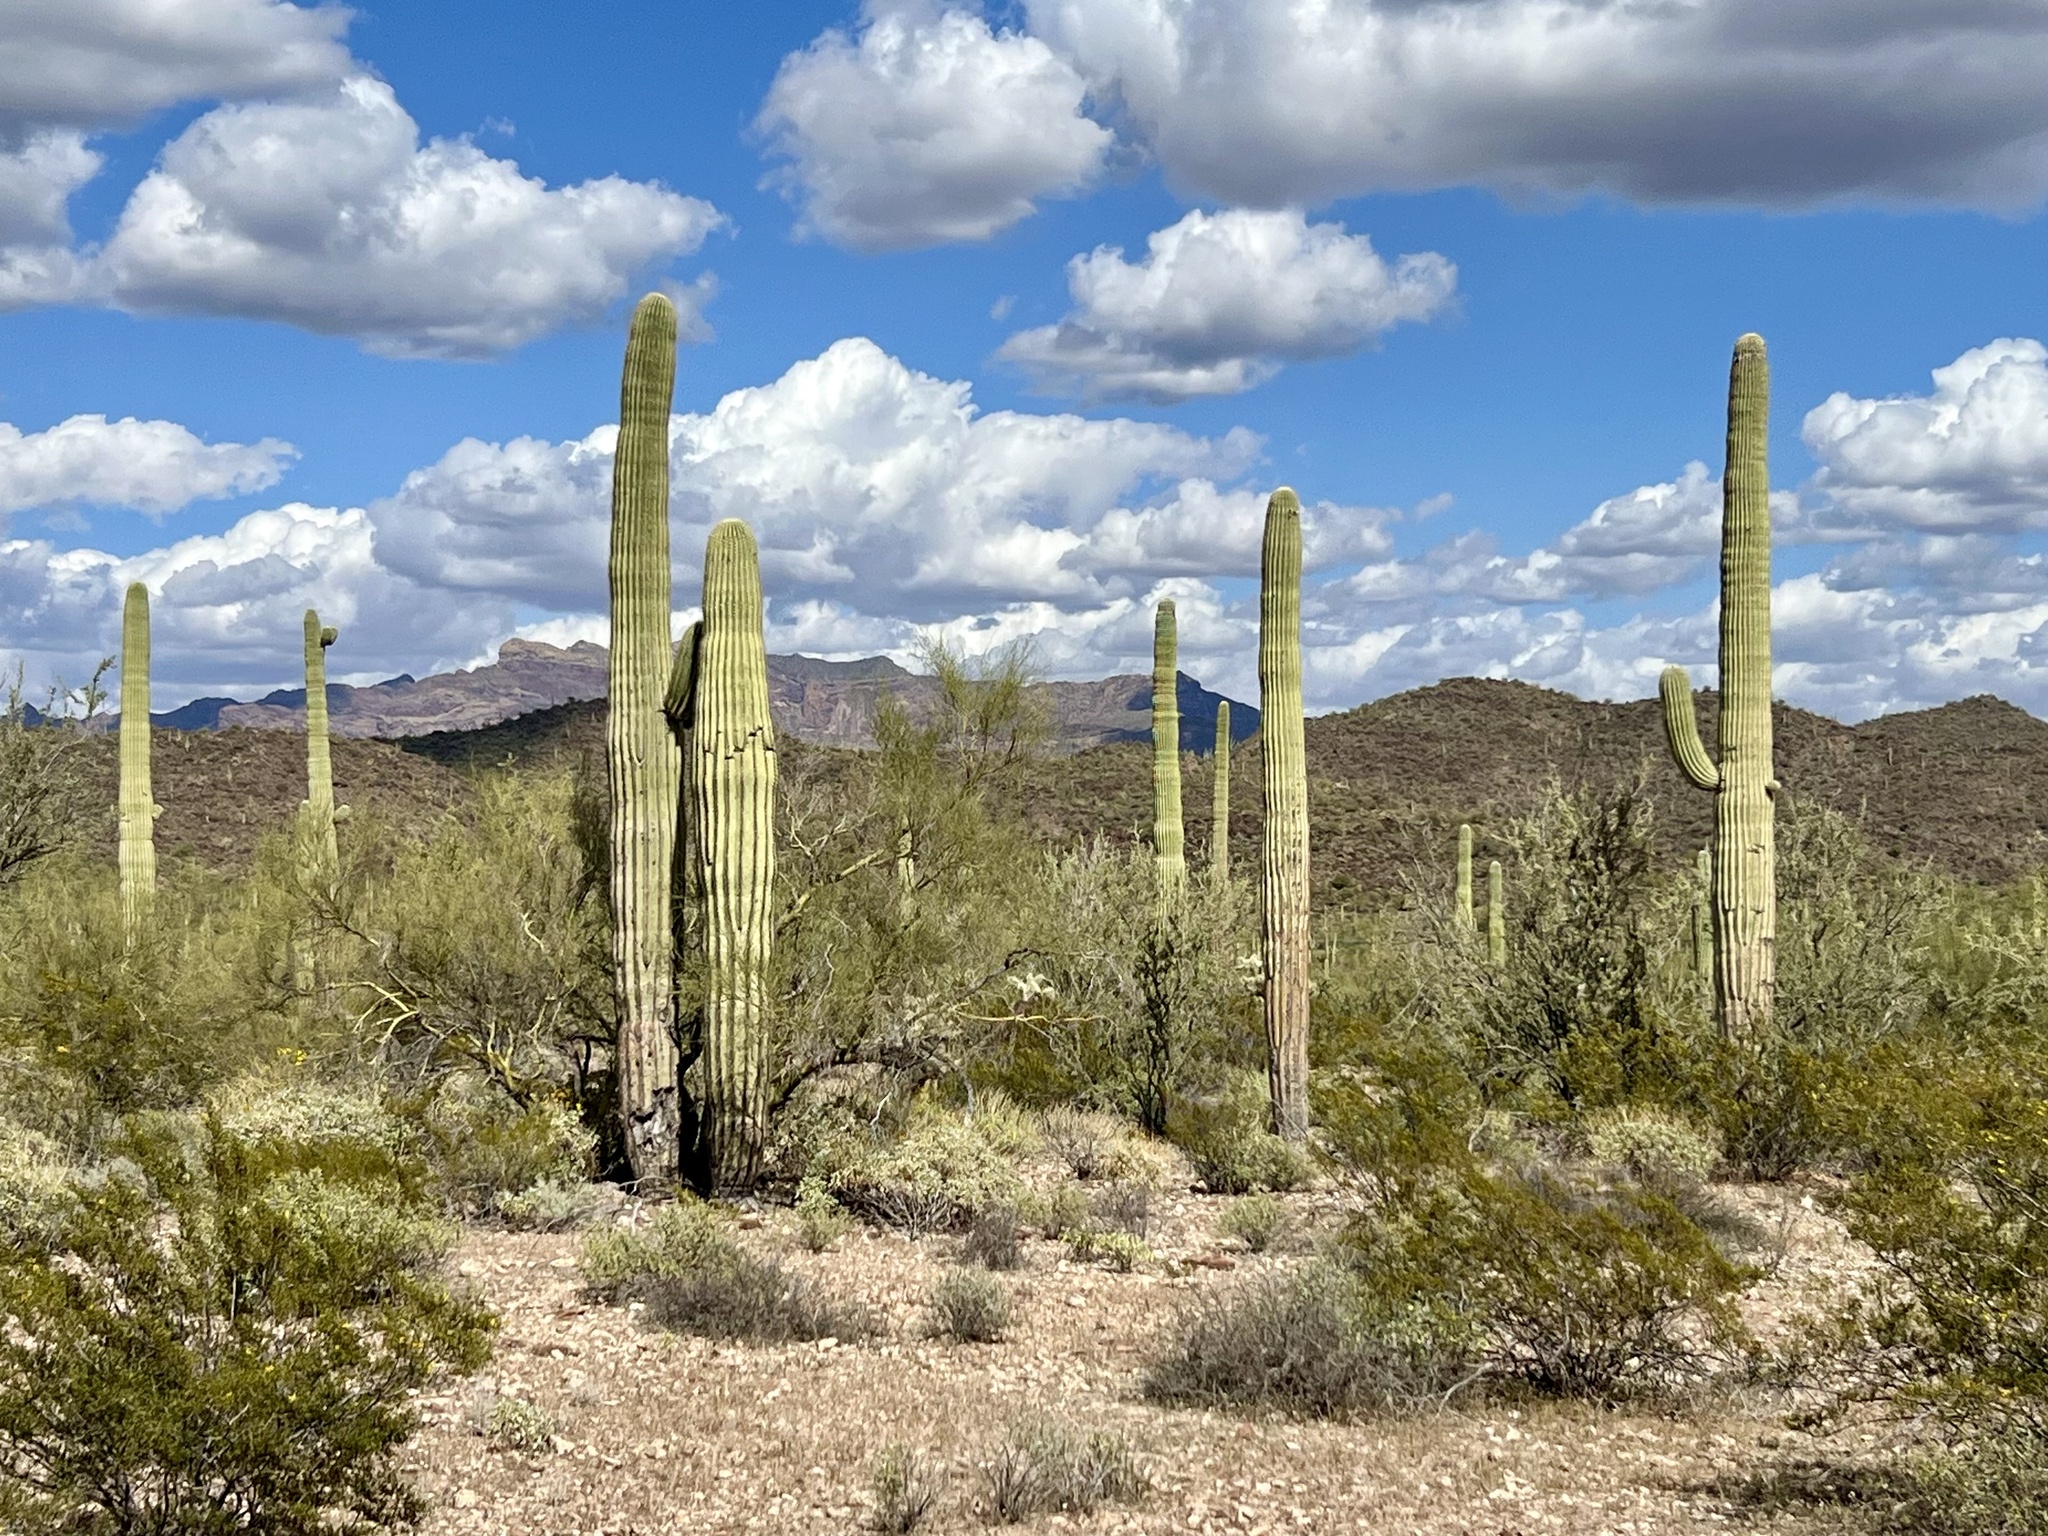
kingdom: Plantae
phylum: Tracheophyta
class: Magnoliopsida
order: Caryophyllales
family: Cactaceae
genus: Carnegiea
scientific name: Carnegiea gigantea
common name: Saguaro
